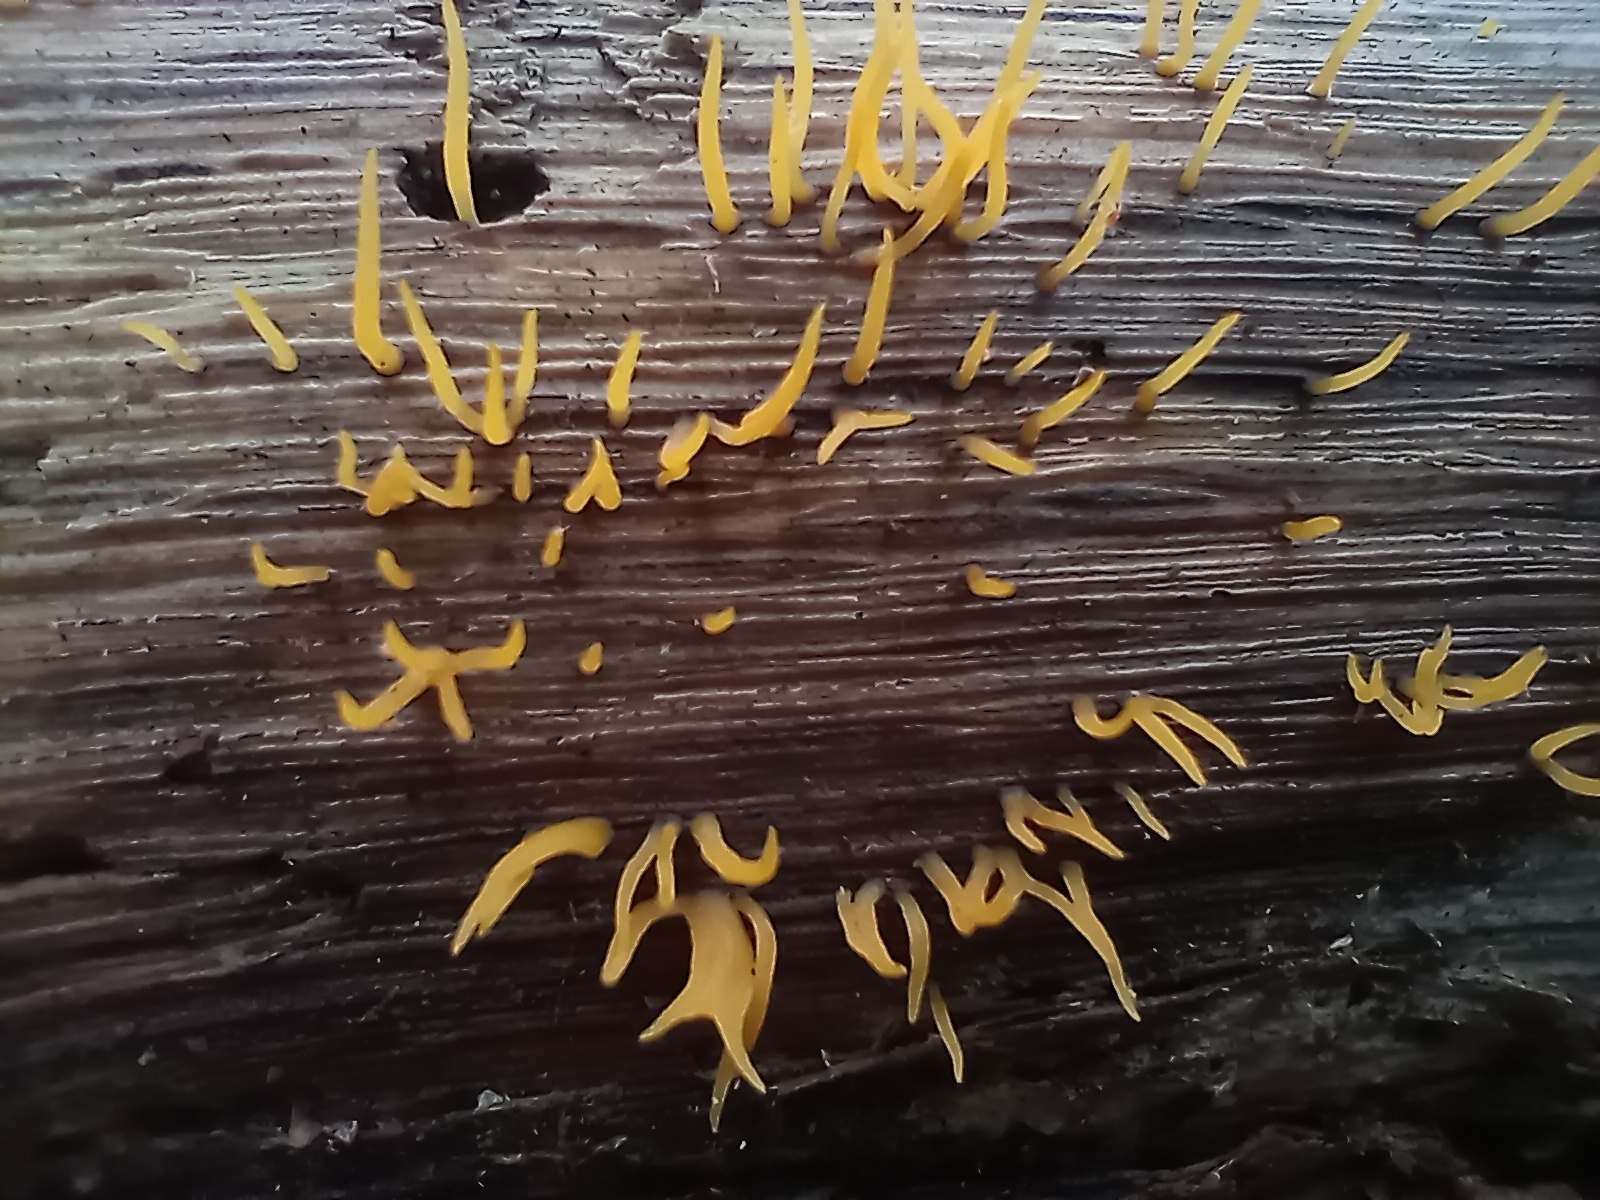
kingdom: Fungi
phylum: Basidiomycota
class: Dacrymycetes
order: Dacrymycetales
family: Dacrymycetaceae
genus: Calocera
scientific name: Calocera cornea
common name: Small stagshorn
